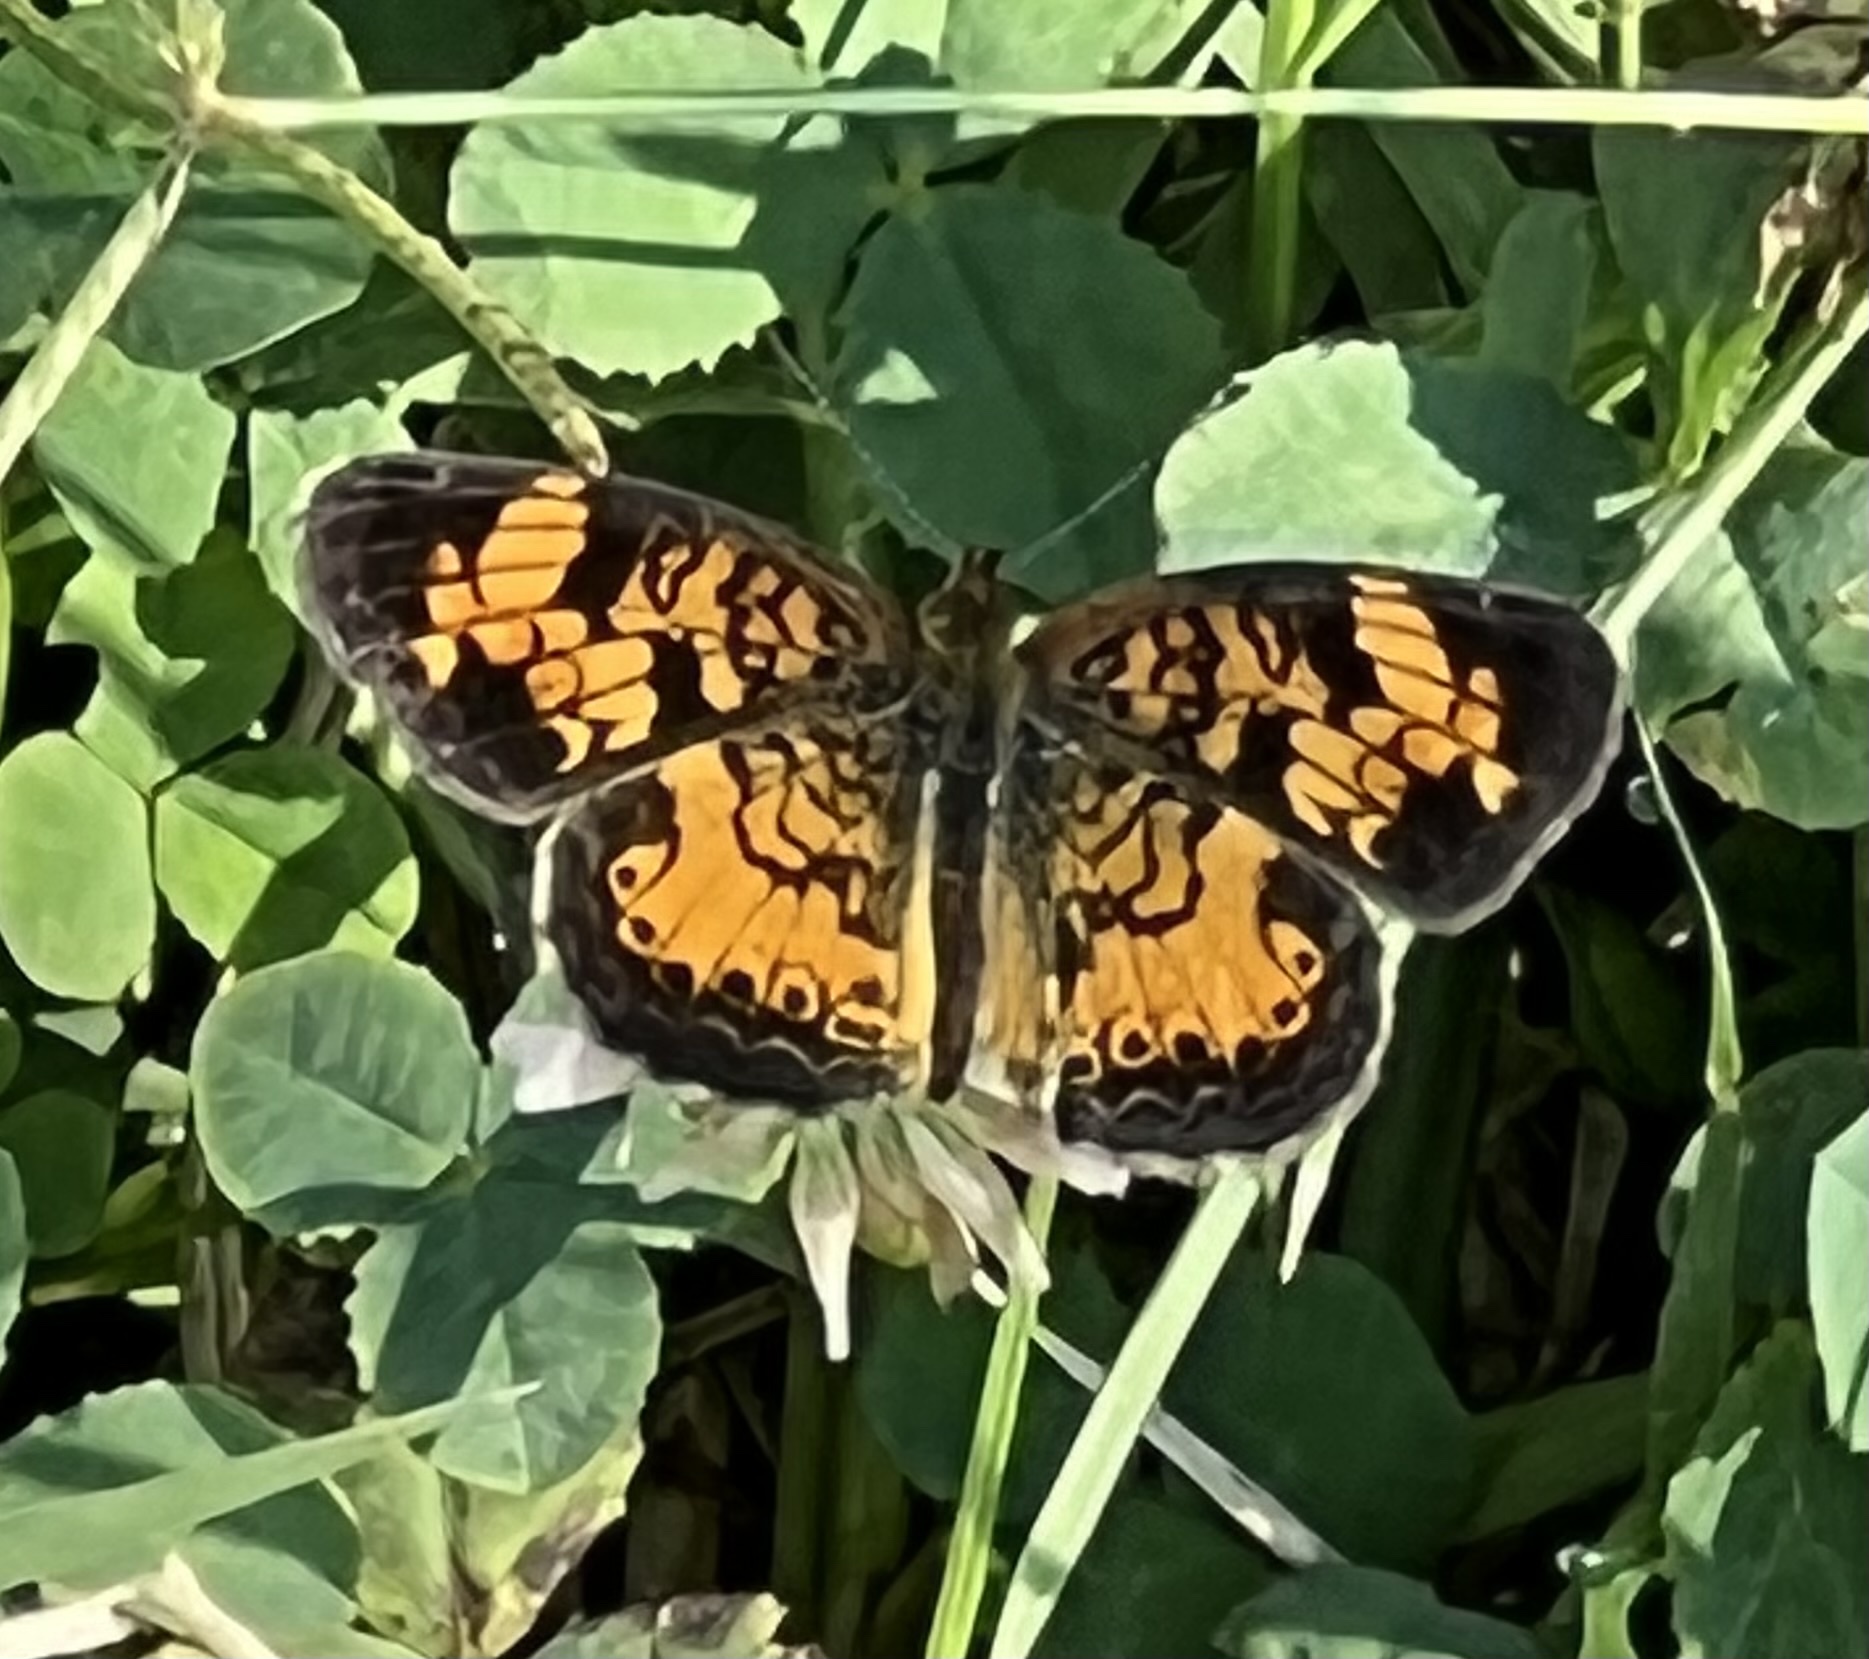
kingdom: Animalia
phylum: Arthropoda
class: Insecta
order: Lepidoptera
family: Nymphalidae
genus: Phyciodes
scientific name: Phyciodes tharos
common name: Pearl crescent
